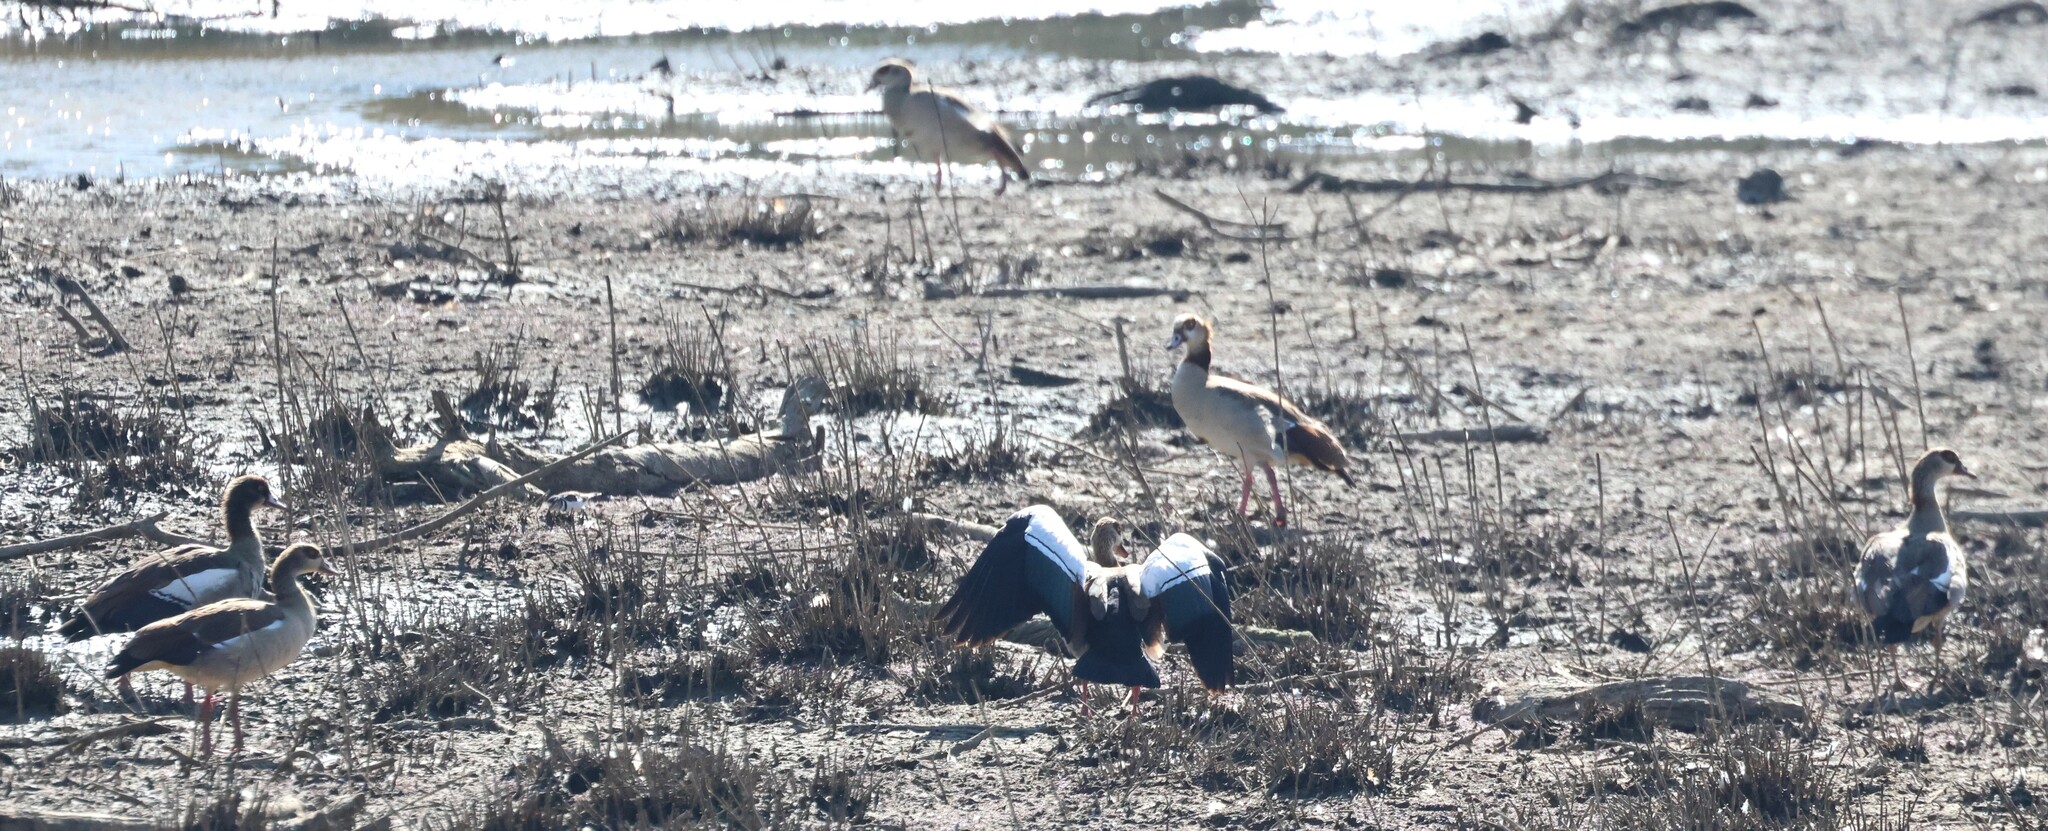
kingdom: Animalia
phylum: Chordata
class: Aves
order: Anseriformes
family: Anatidae
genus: Alopochen
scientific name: Alopochen aegyptiaca
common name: Egyptian goose
